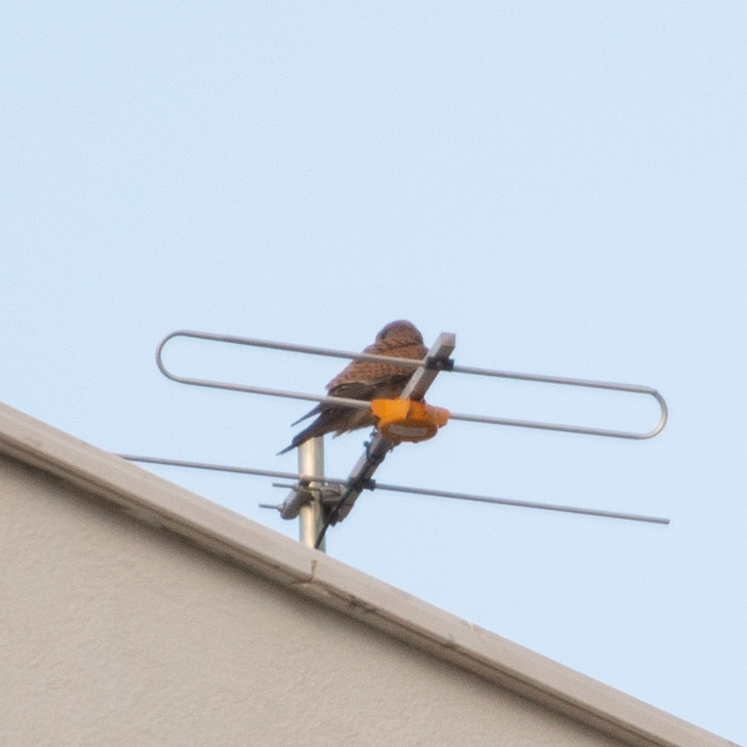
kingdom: Animalia
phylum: Chordata
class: Aves
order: Falconiformes
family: Falconidae
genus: Falco
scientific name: Falco tinnunculus
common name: Common kestrel
